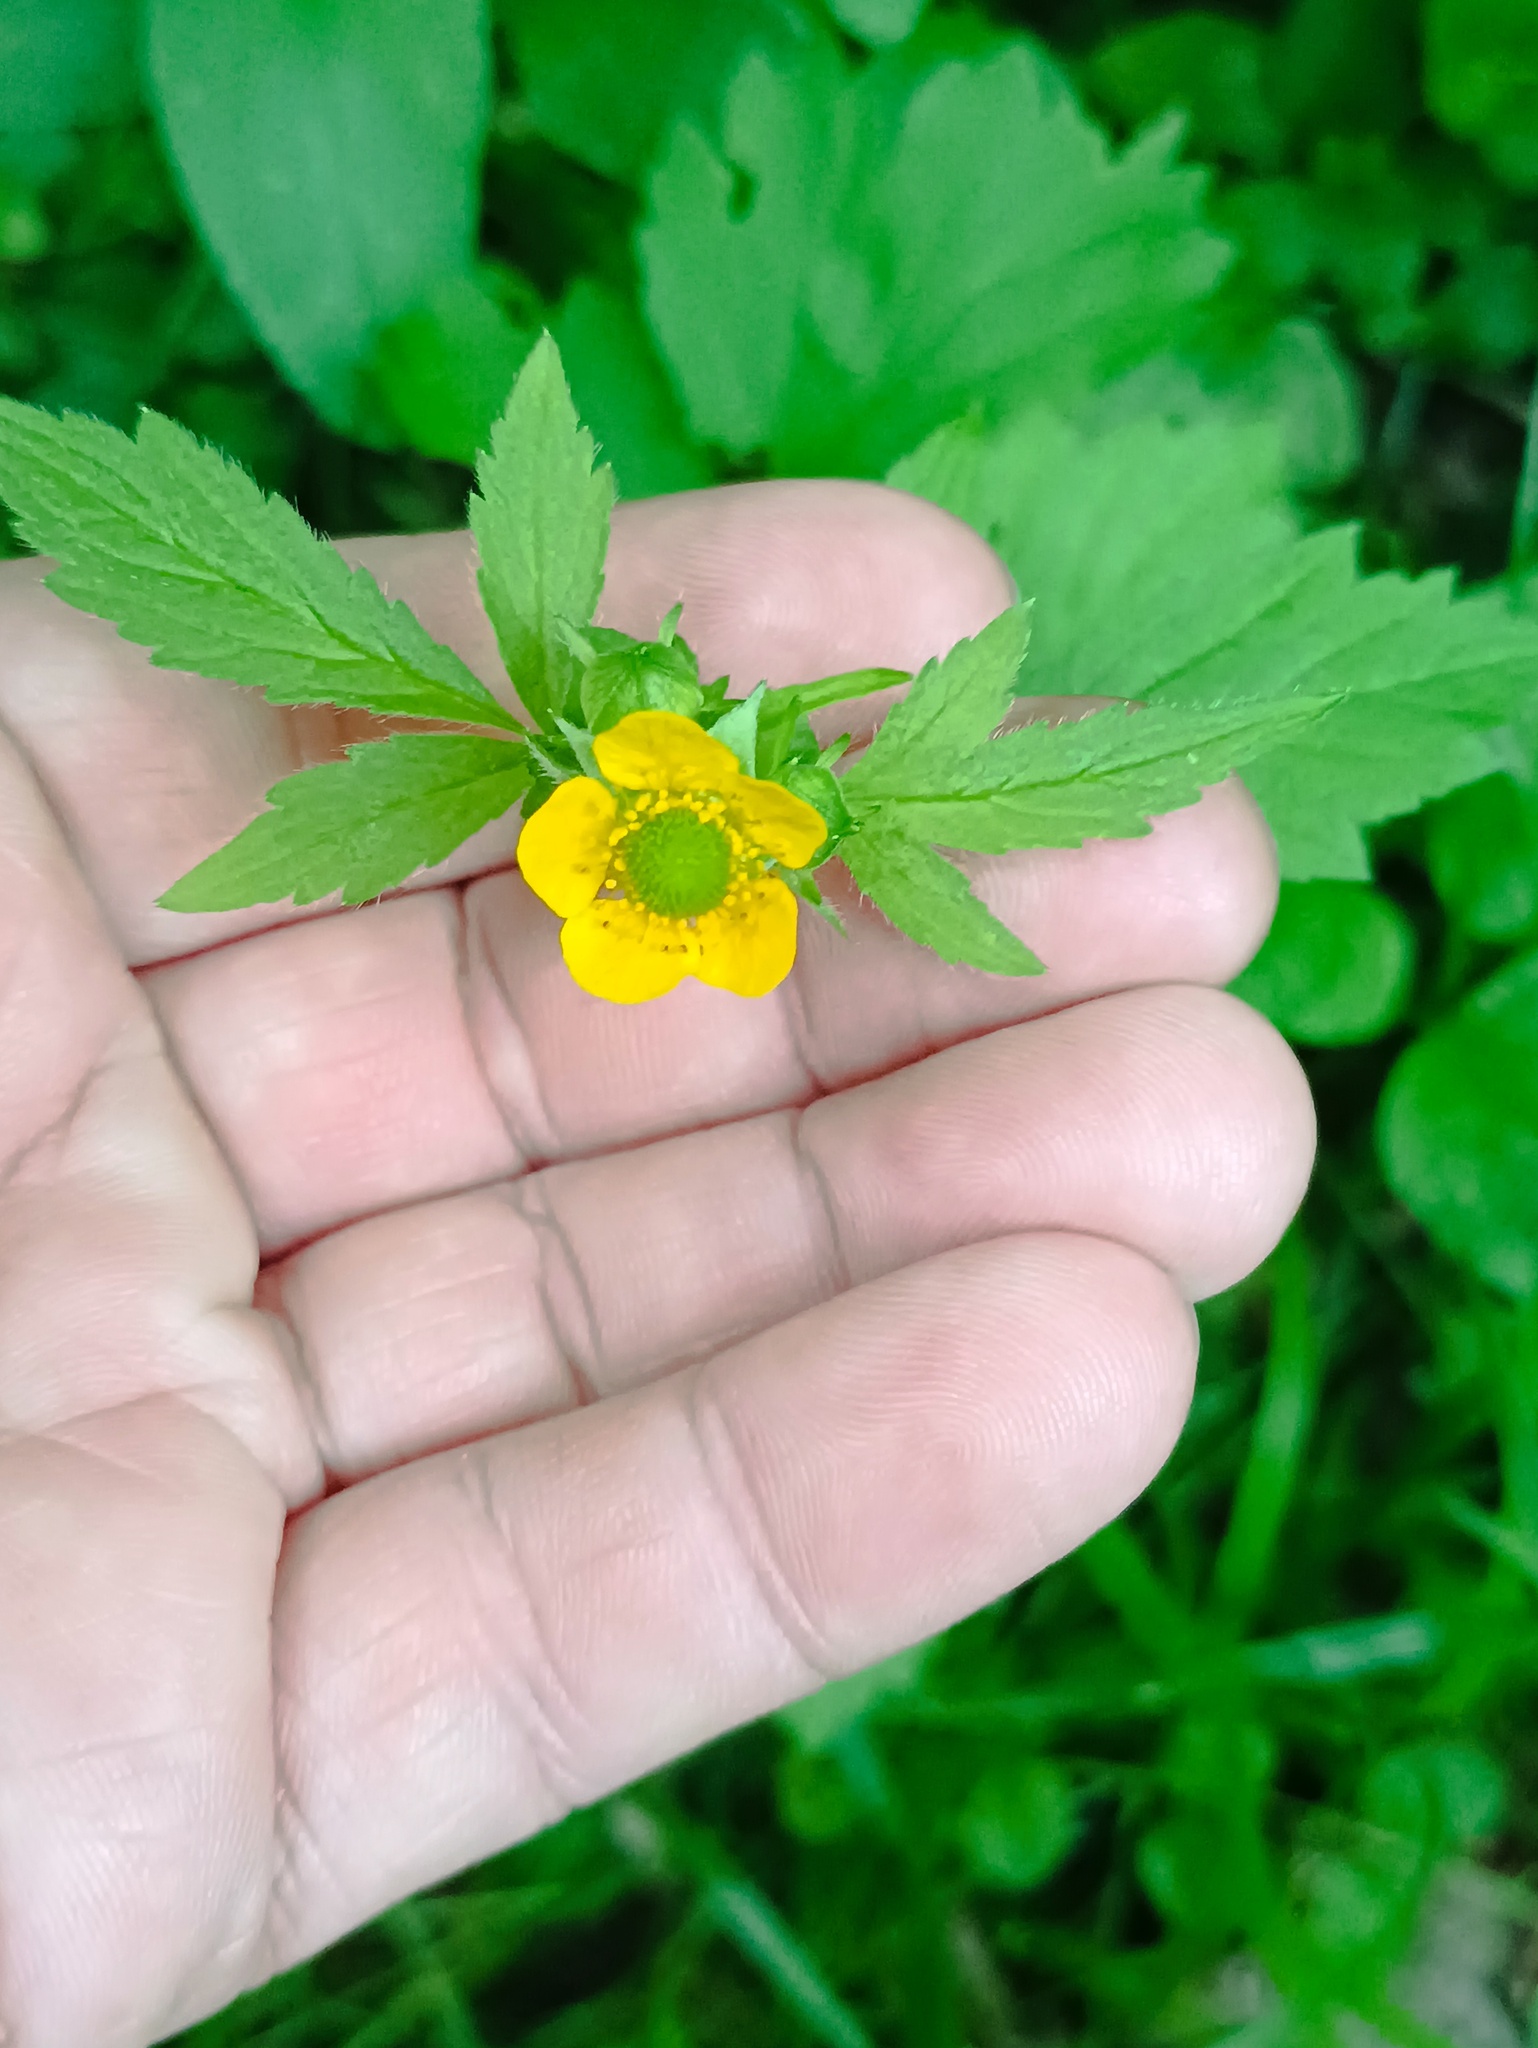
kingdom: Plantae
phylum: Tracheophyta
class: Magnoliopsida
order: Rosales
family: Rosaceae
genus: Geum
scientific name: Geum aleppicum
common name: Yellow avens
